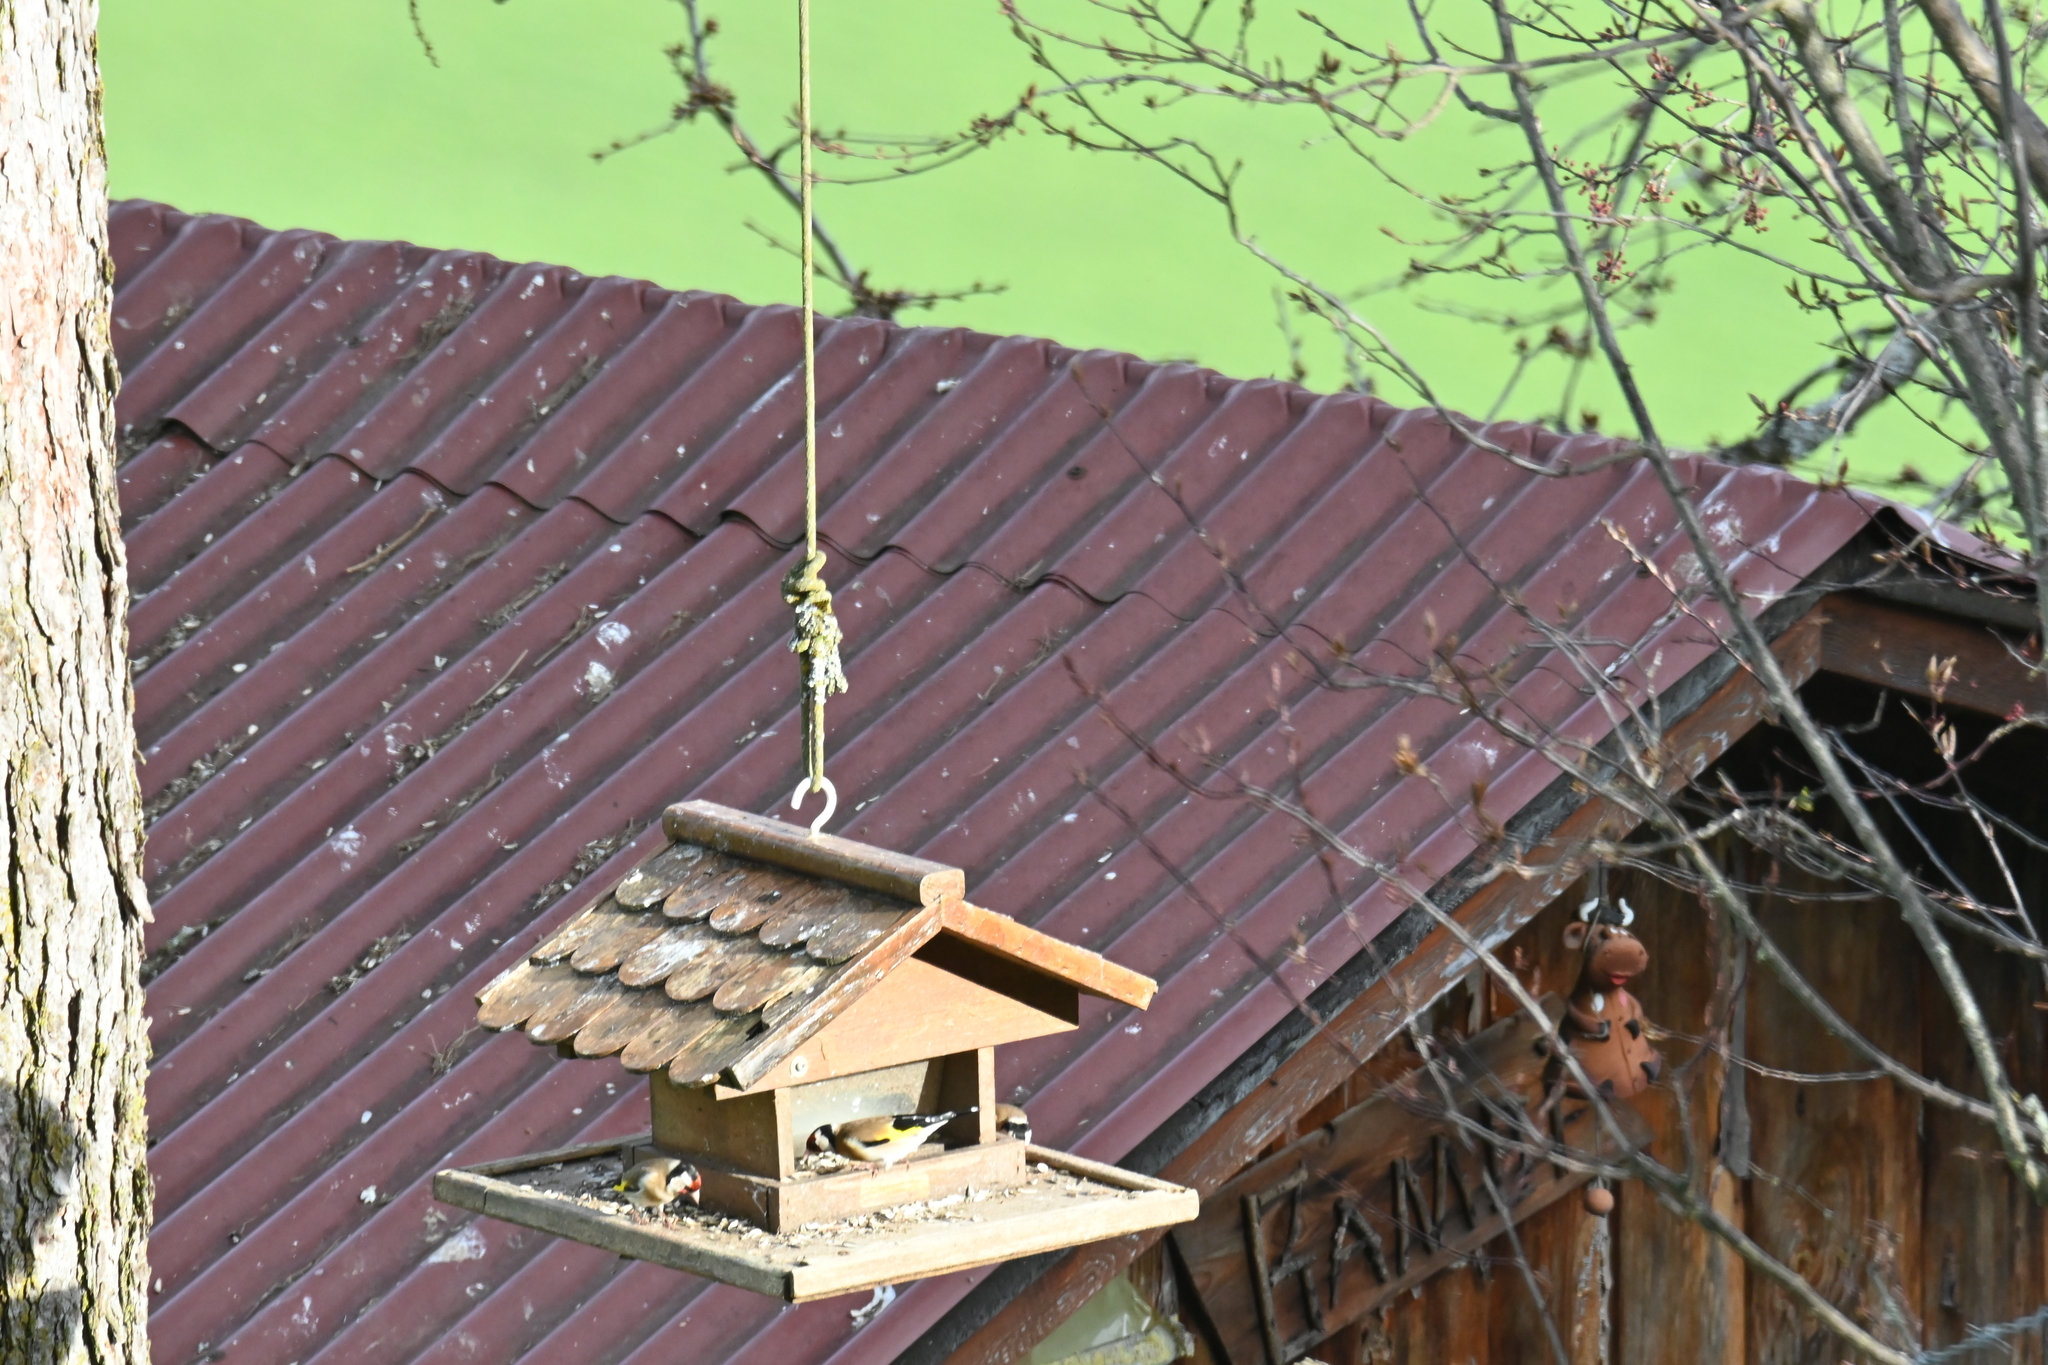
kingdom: Animalia
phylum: Chordata
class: Aves
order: Passeriformes
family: Fringillidae
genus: Carduelis
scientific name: Carduelis carduelis
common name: European goldfinch
